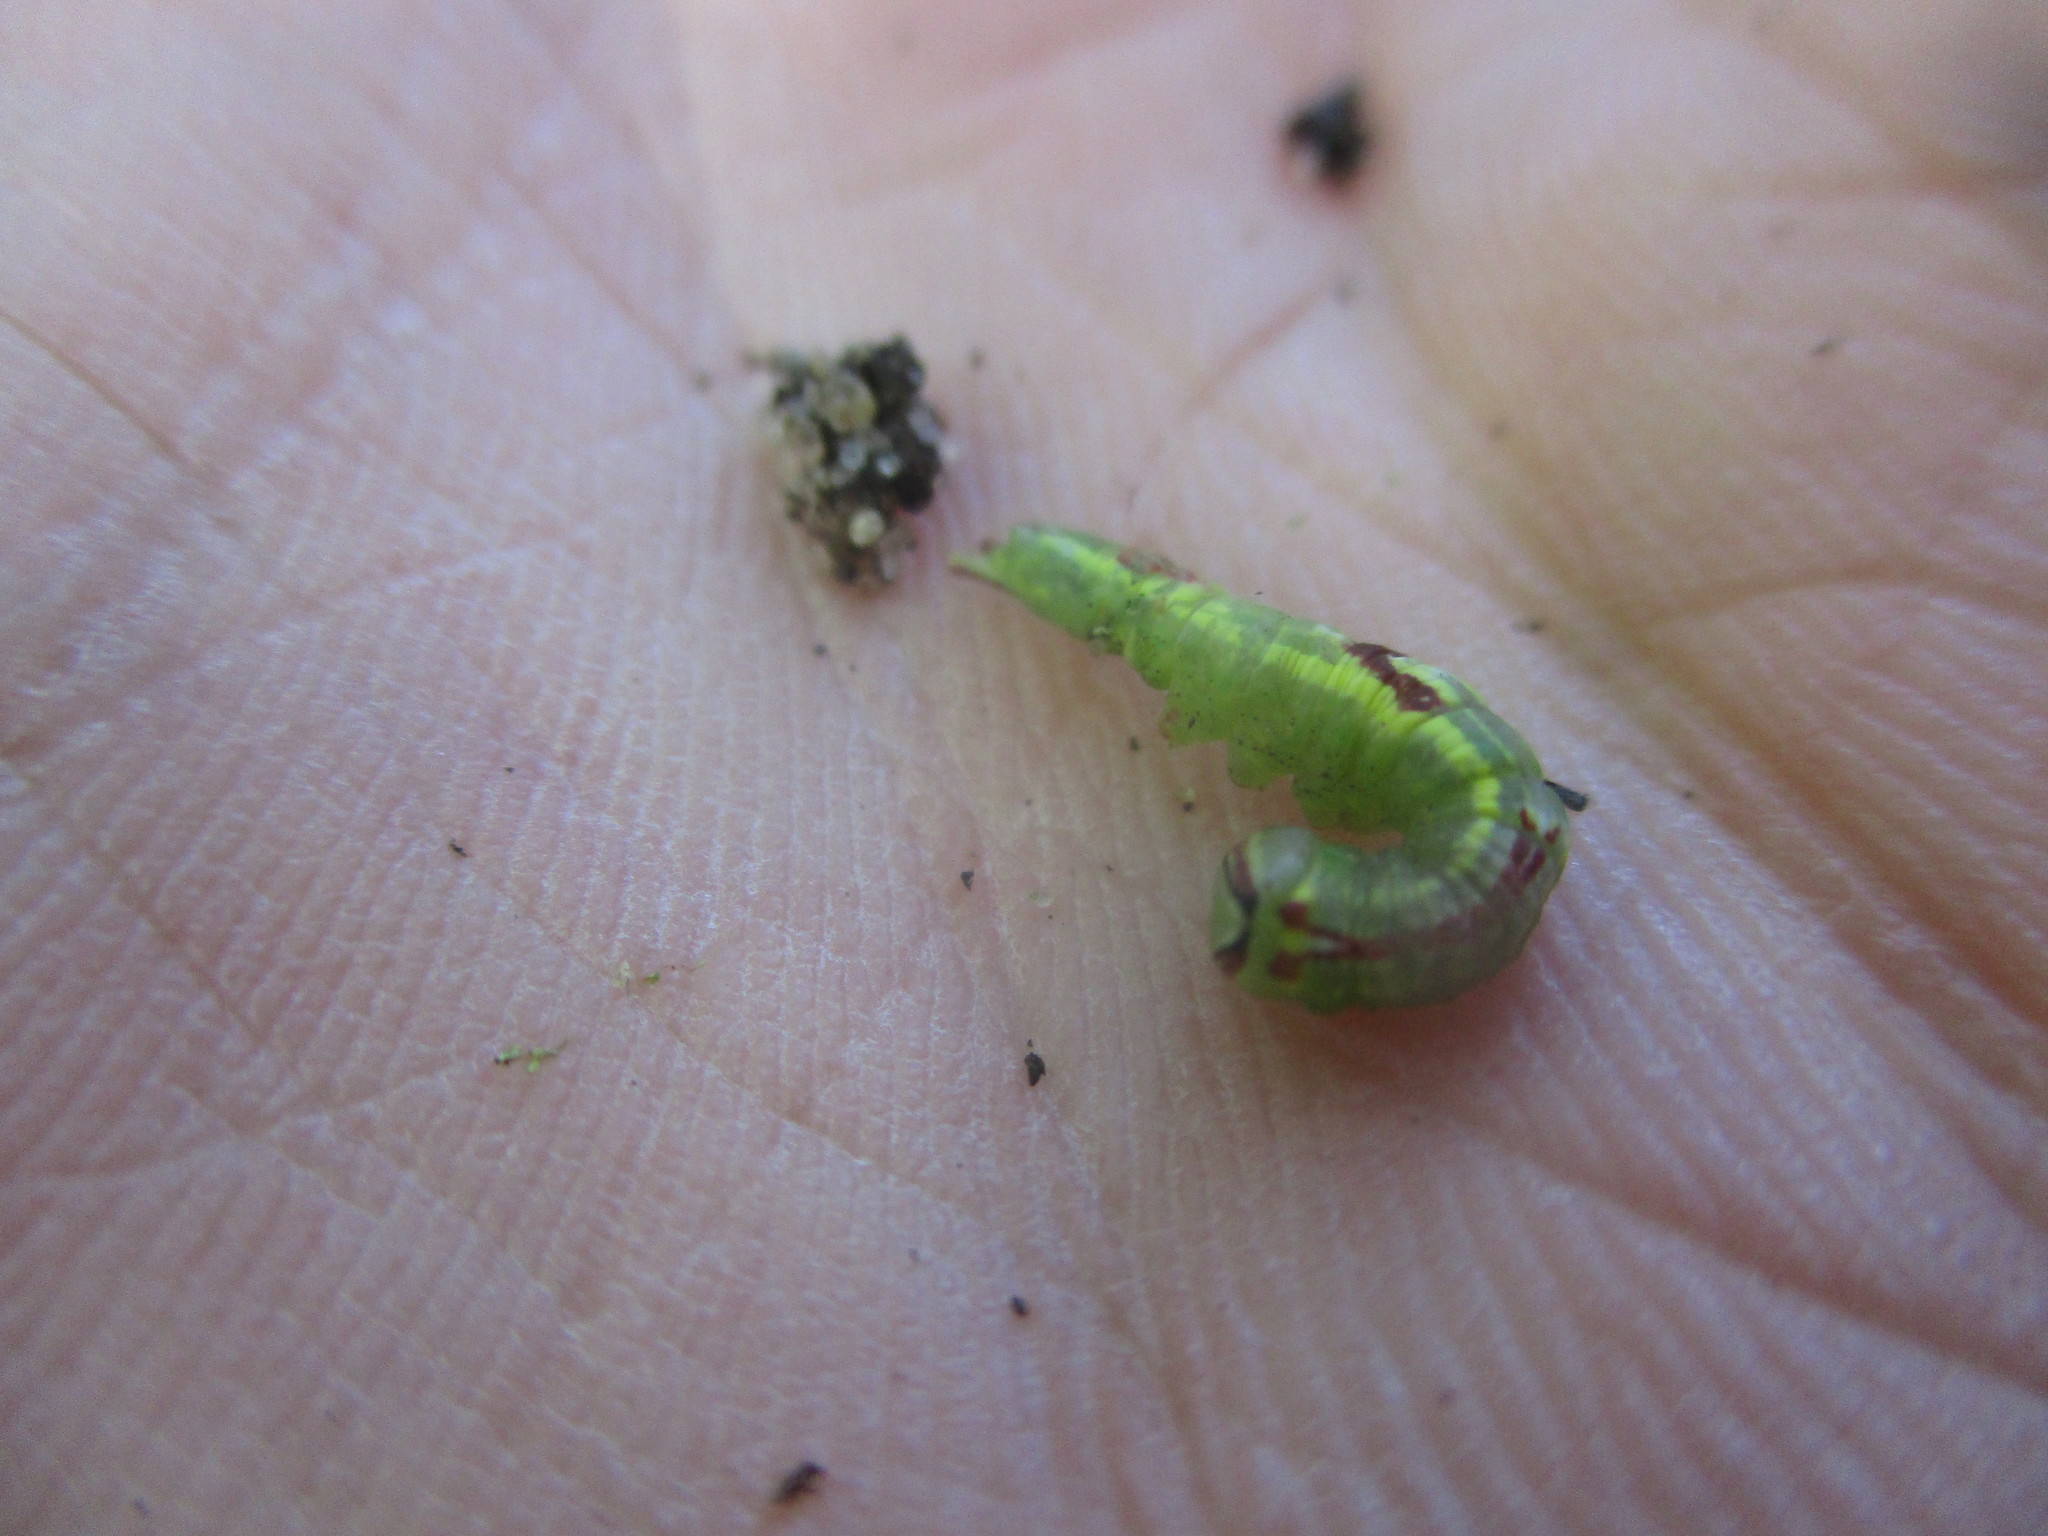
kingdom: Animalia
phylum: Arthropoda
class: Insecta
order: Lepidoptera
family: Notodontidae
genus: Disphragis
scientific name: Disphragis Cecrita guttivitta
